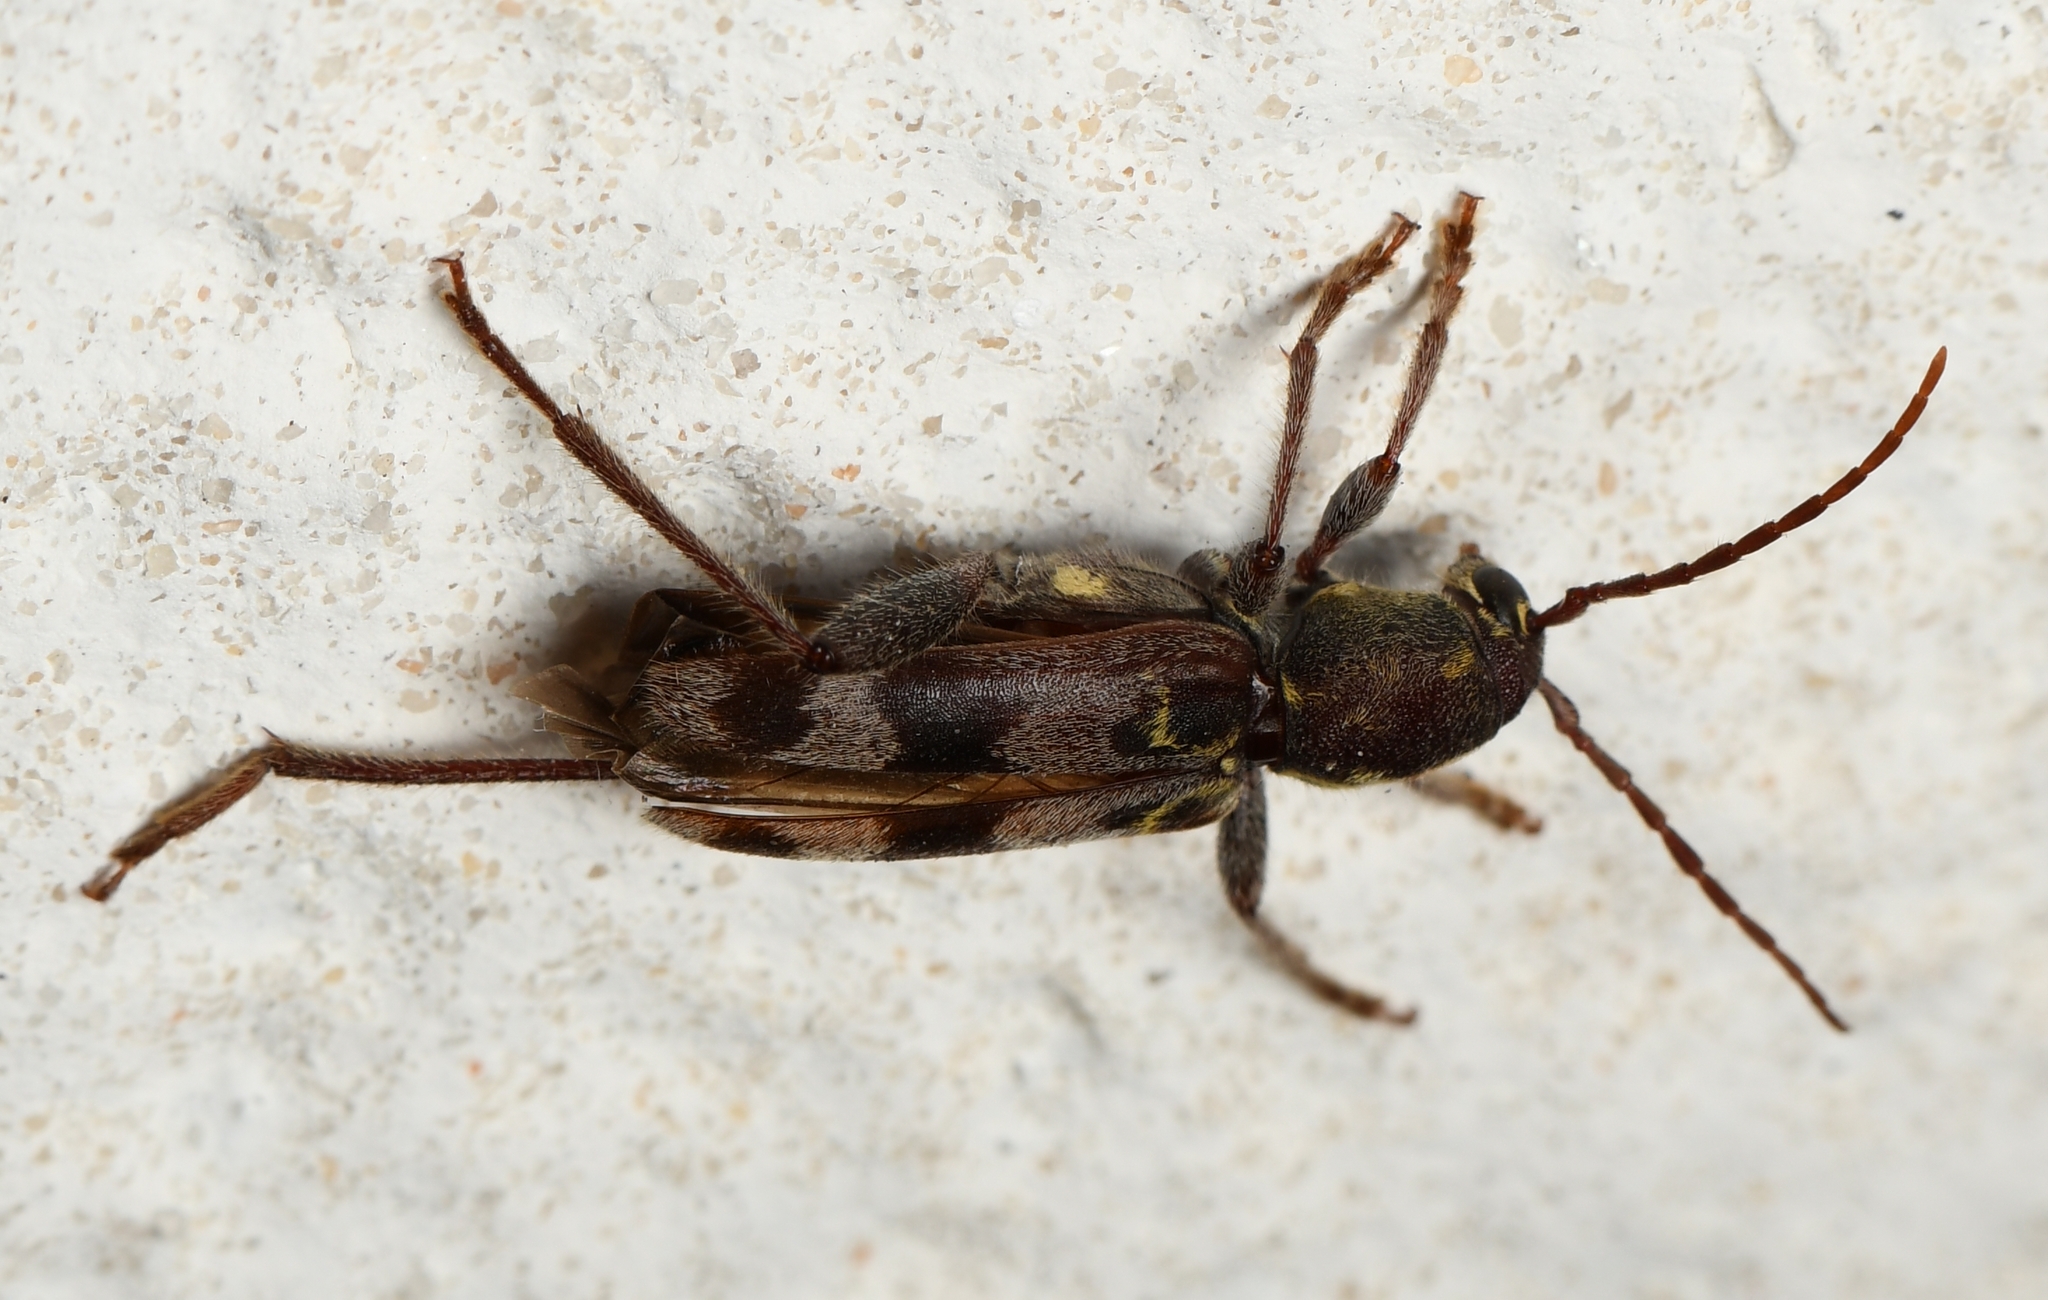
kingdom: Animalia
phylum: Arthropoda
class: Insecta
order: Coleoptera
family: Cerambycidae
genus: Xylotrechus
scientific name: Xylotrechus colonus
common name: Long-horned beetle
